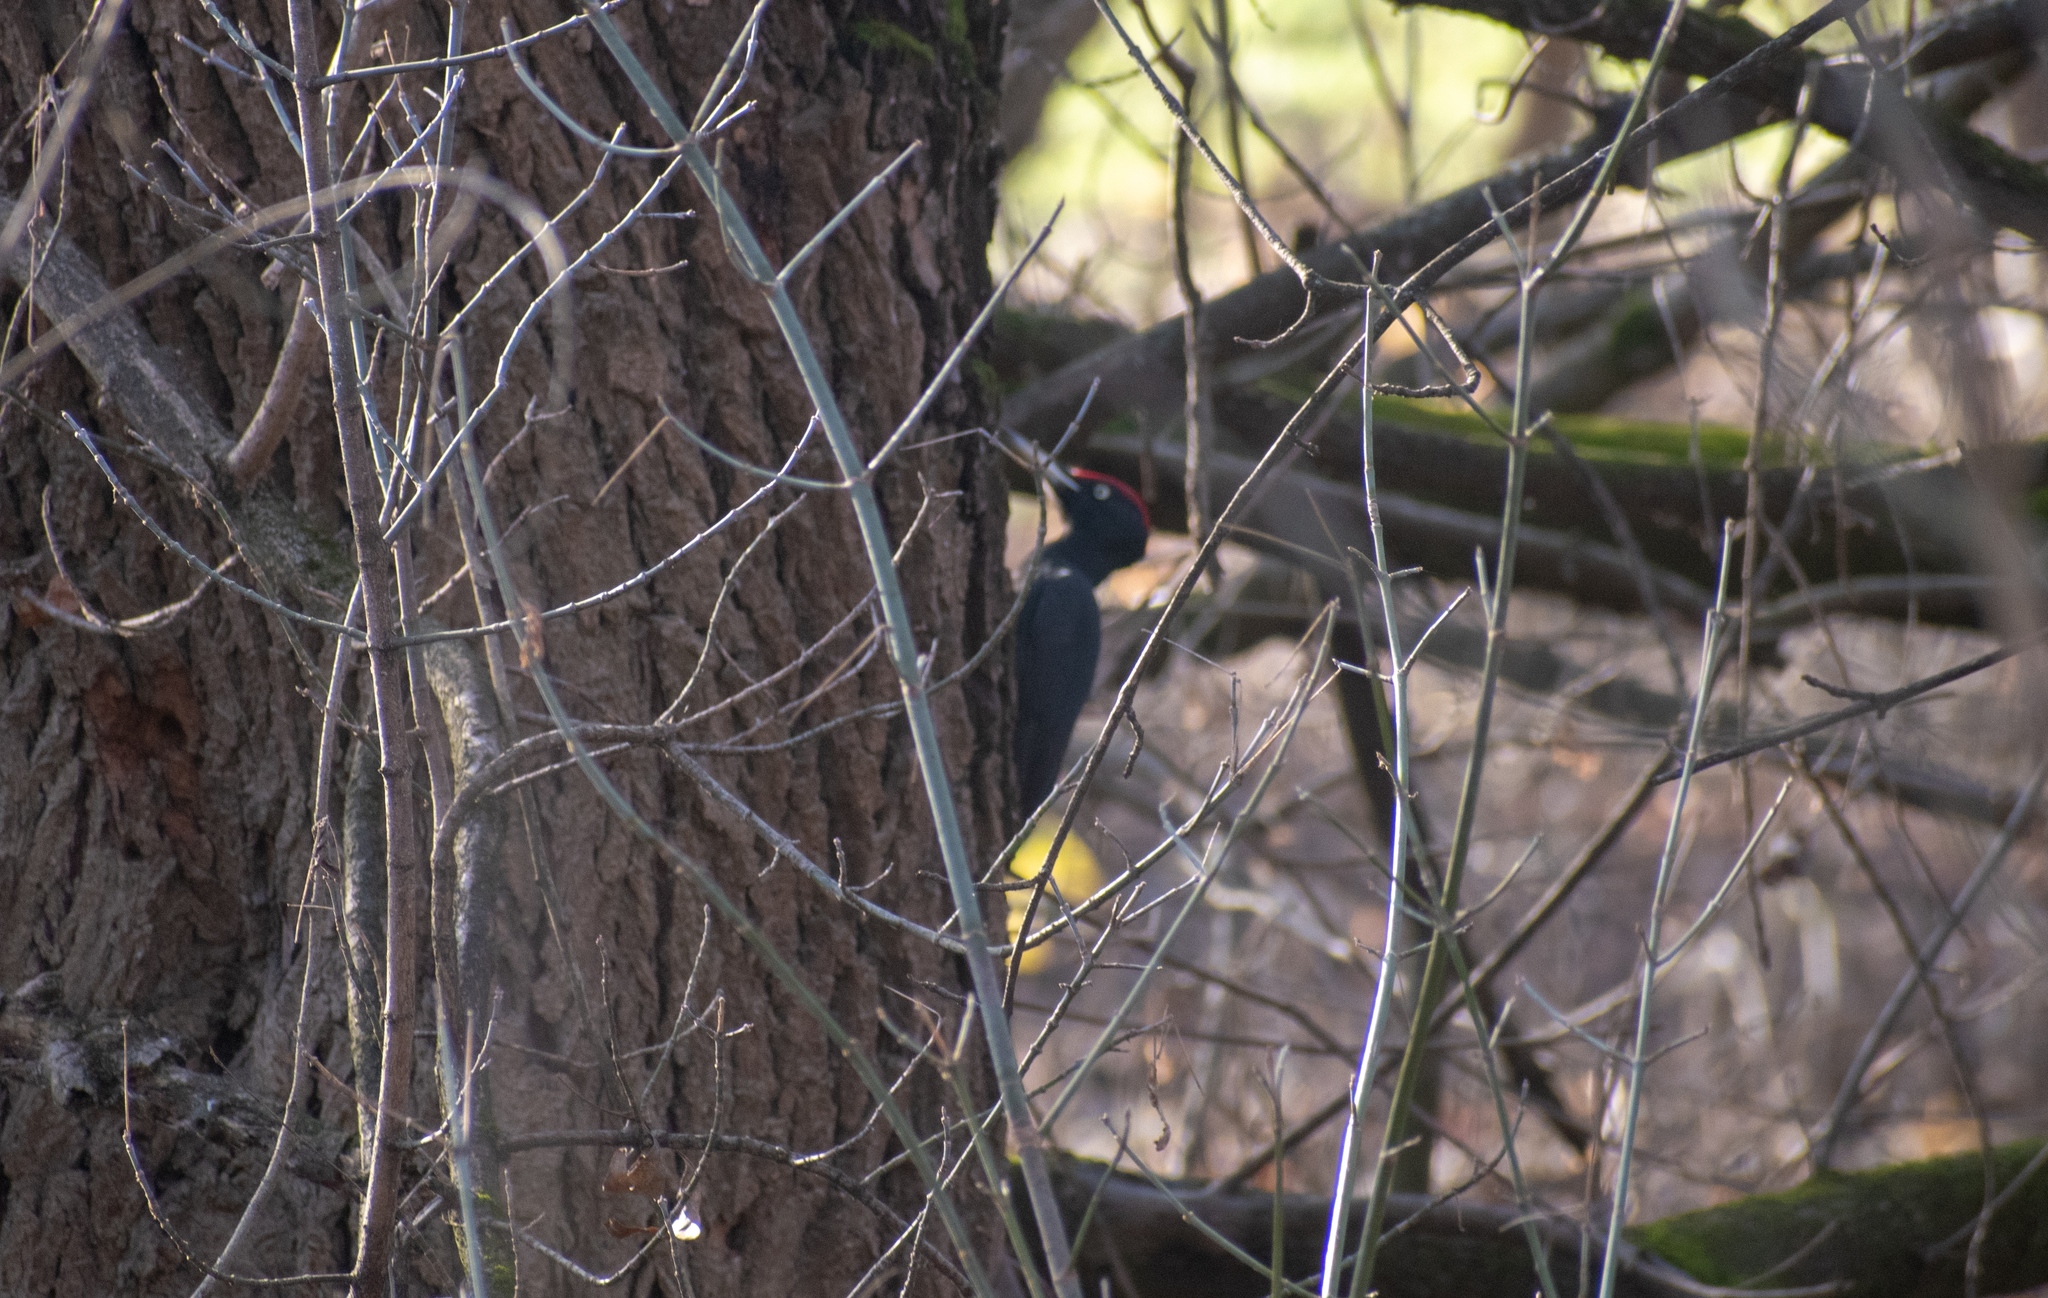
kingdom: Animalia
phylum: Chordata
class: Aves
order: Piciformes
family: Picidae
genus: Dryocopus
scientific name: Dryocopus martius
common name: Black woodpecker
